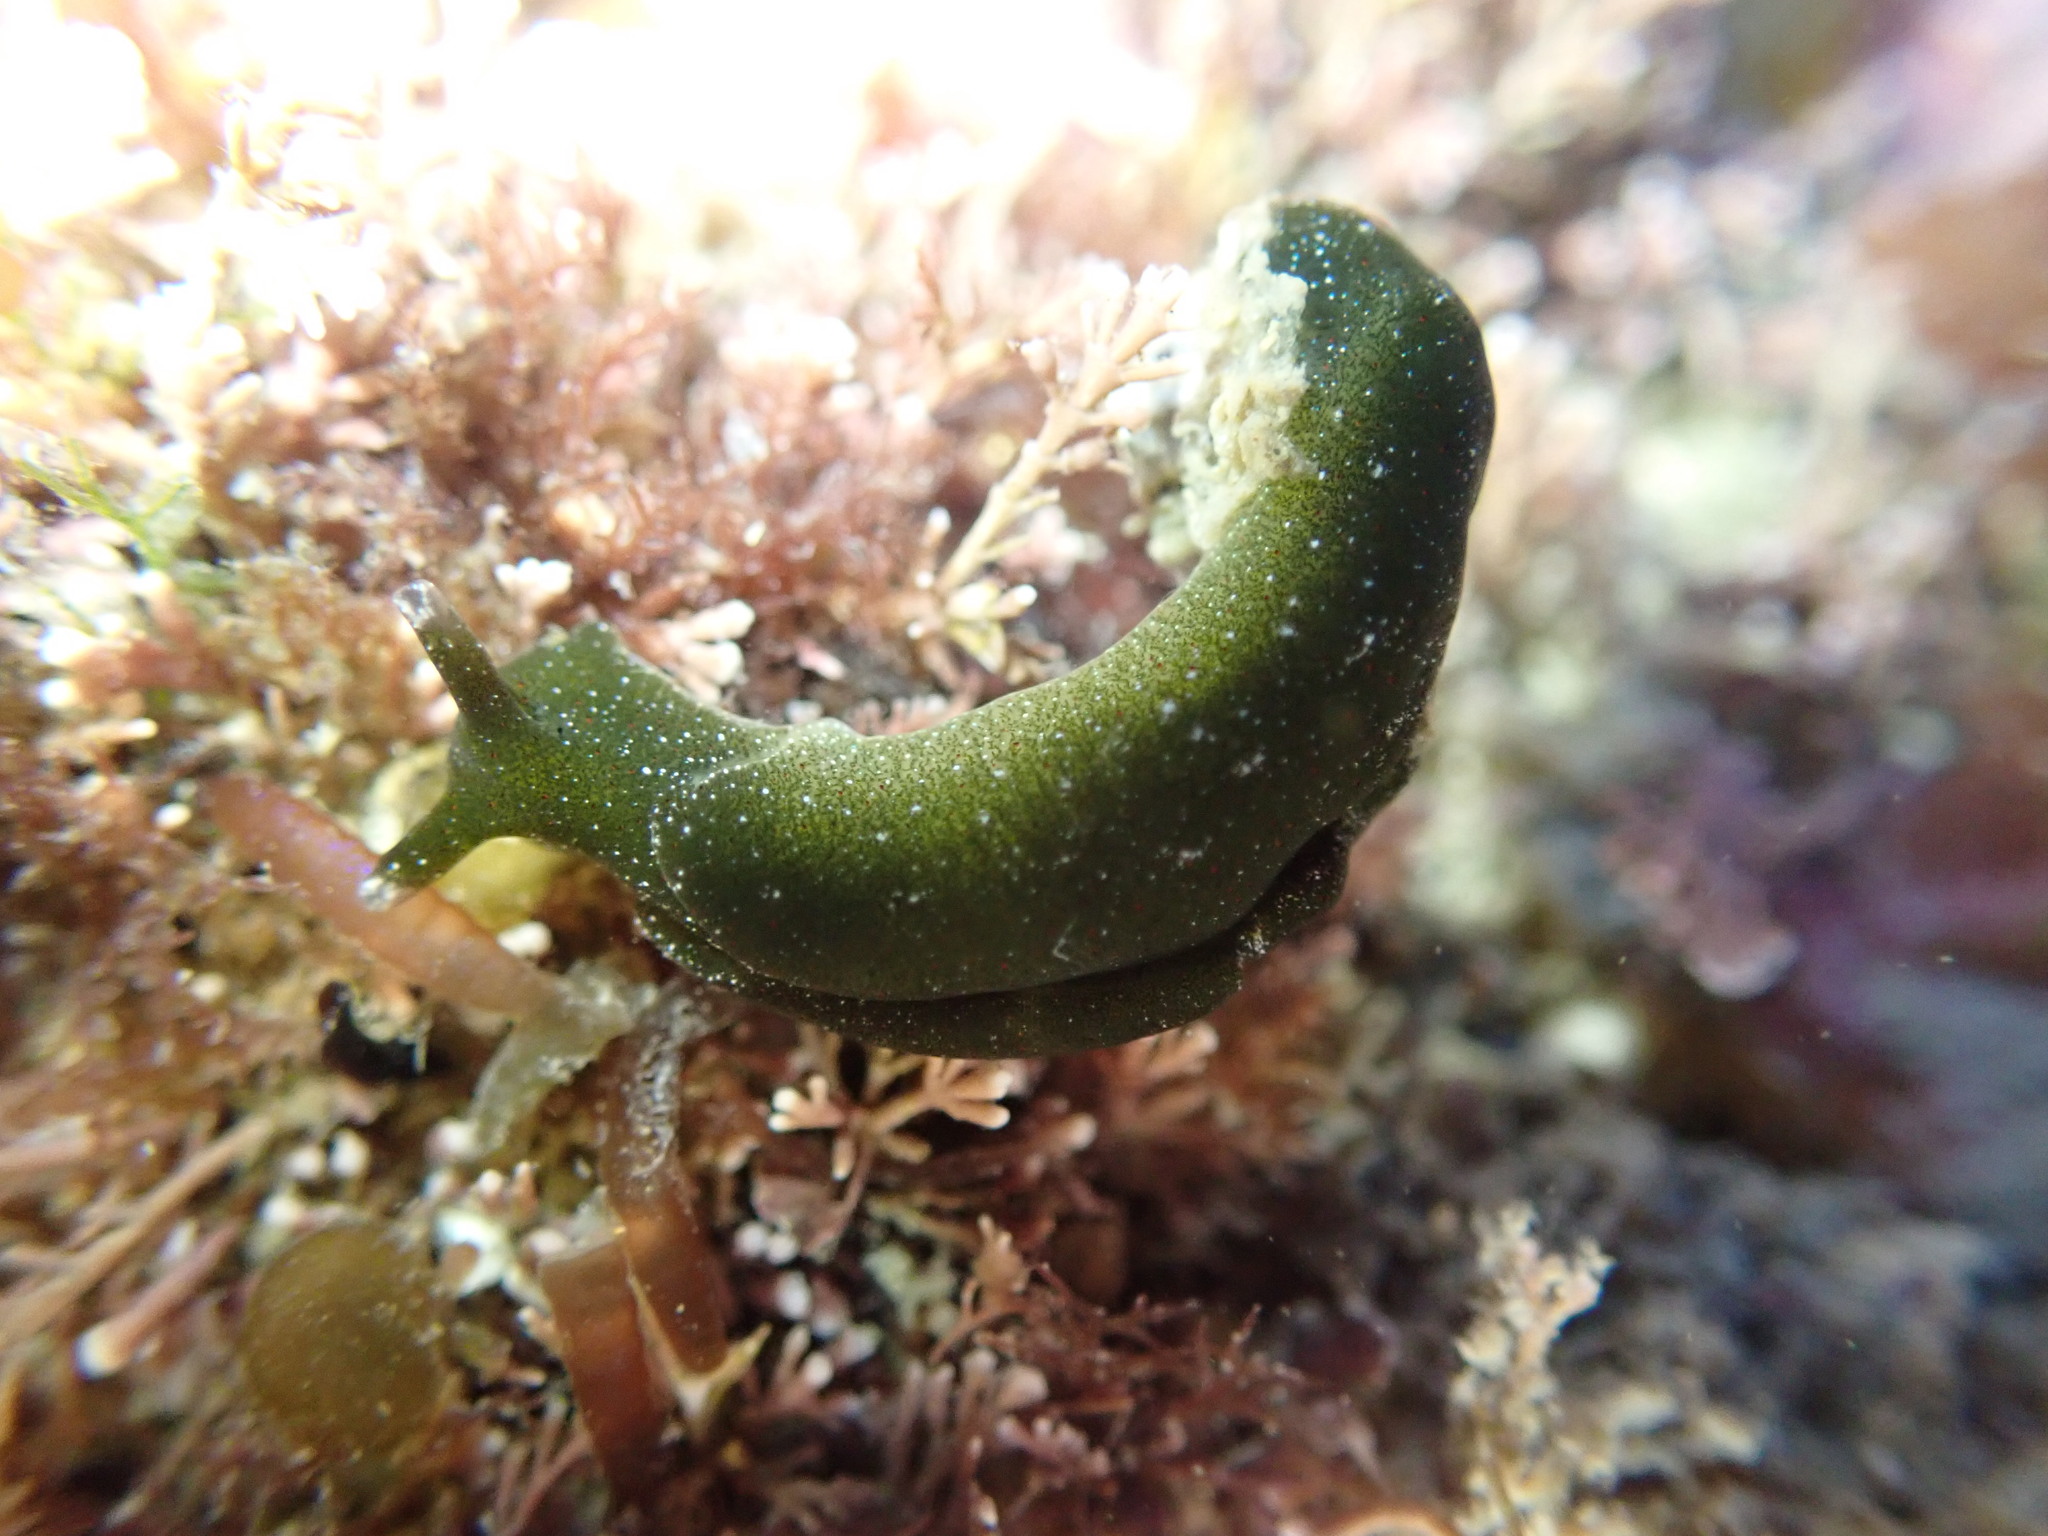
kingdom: Animalia
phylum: Mollusca
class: Gastropoda
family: Plakobranchidae
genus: Elysia
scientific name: Elysia maoria
